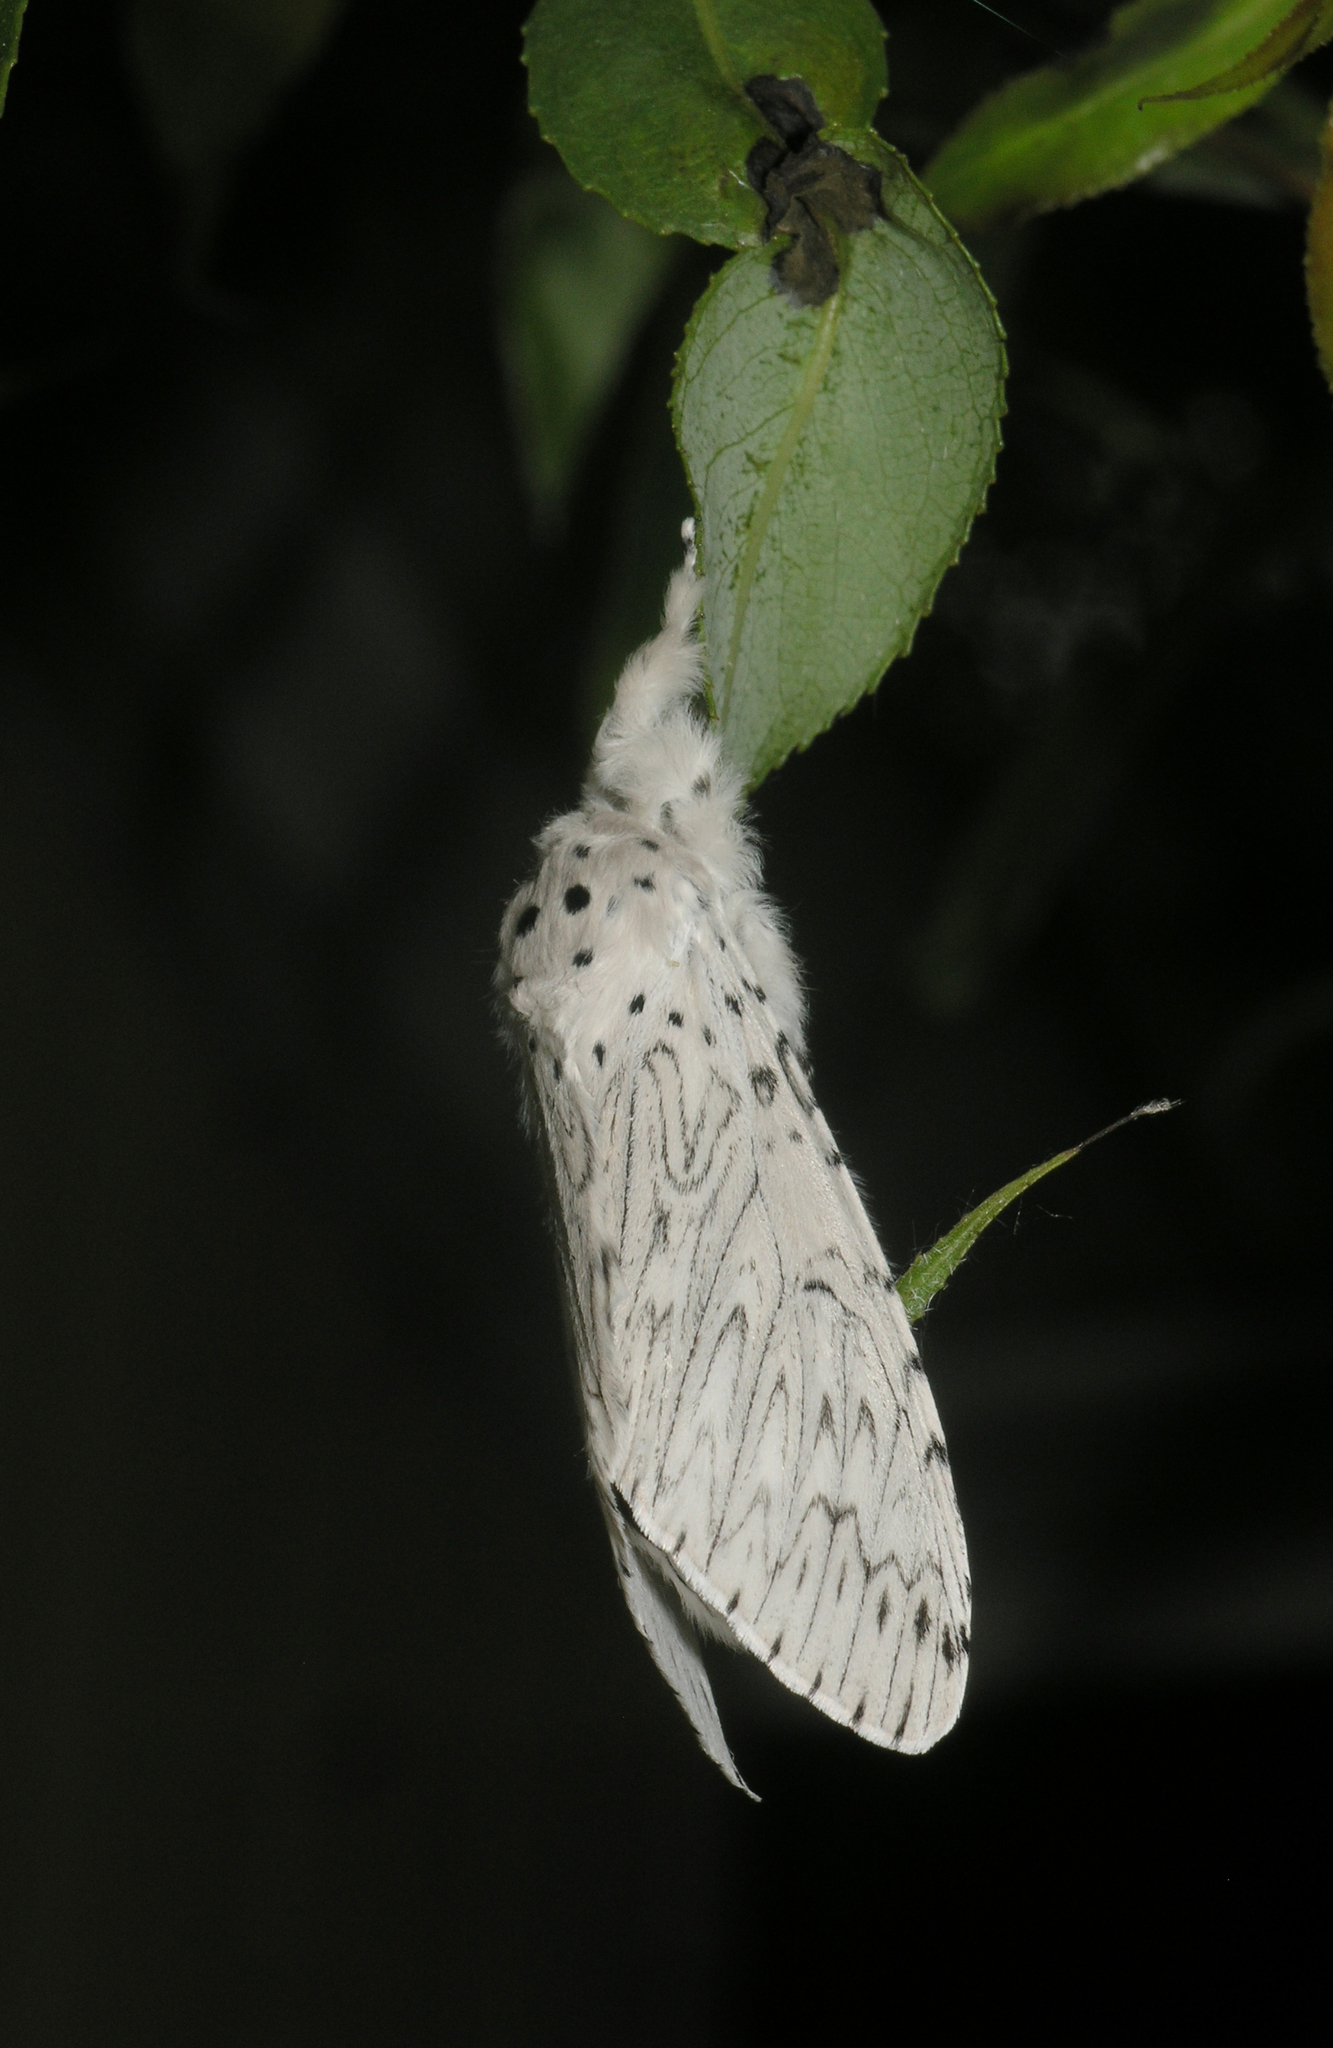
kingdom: Animalia
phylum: Arthropoda
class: Insecta
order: Lepidoptera
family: Notodontidae
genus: Cerura
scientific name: Cerura erminea
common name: Lesser puss moth
